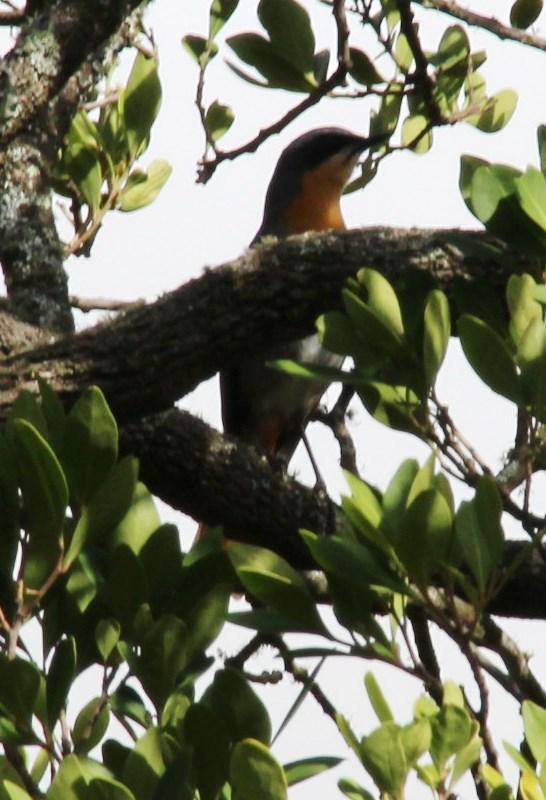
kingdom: Animalia
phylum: Chordata
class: Aves
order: Passeriformes
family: Muscicapidae
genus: Cossypha
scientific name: Cossypha caffra
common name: Cape robin-chat
